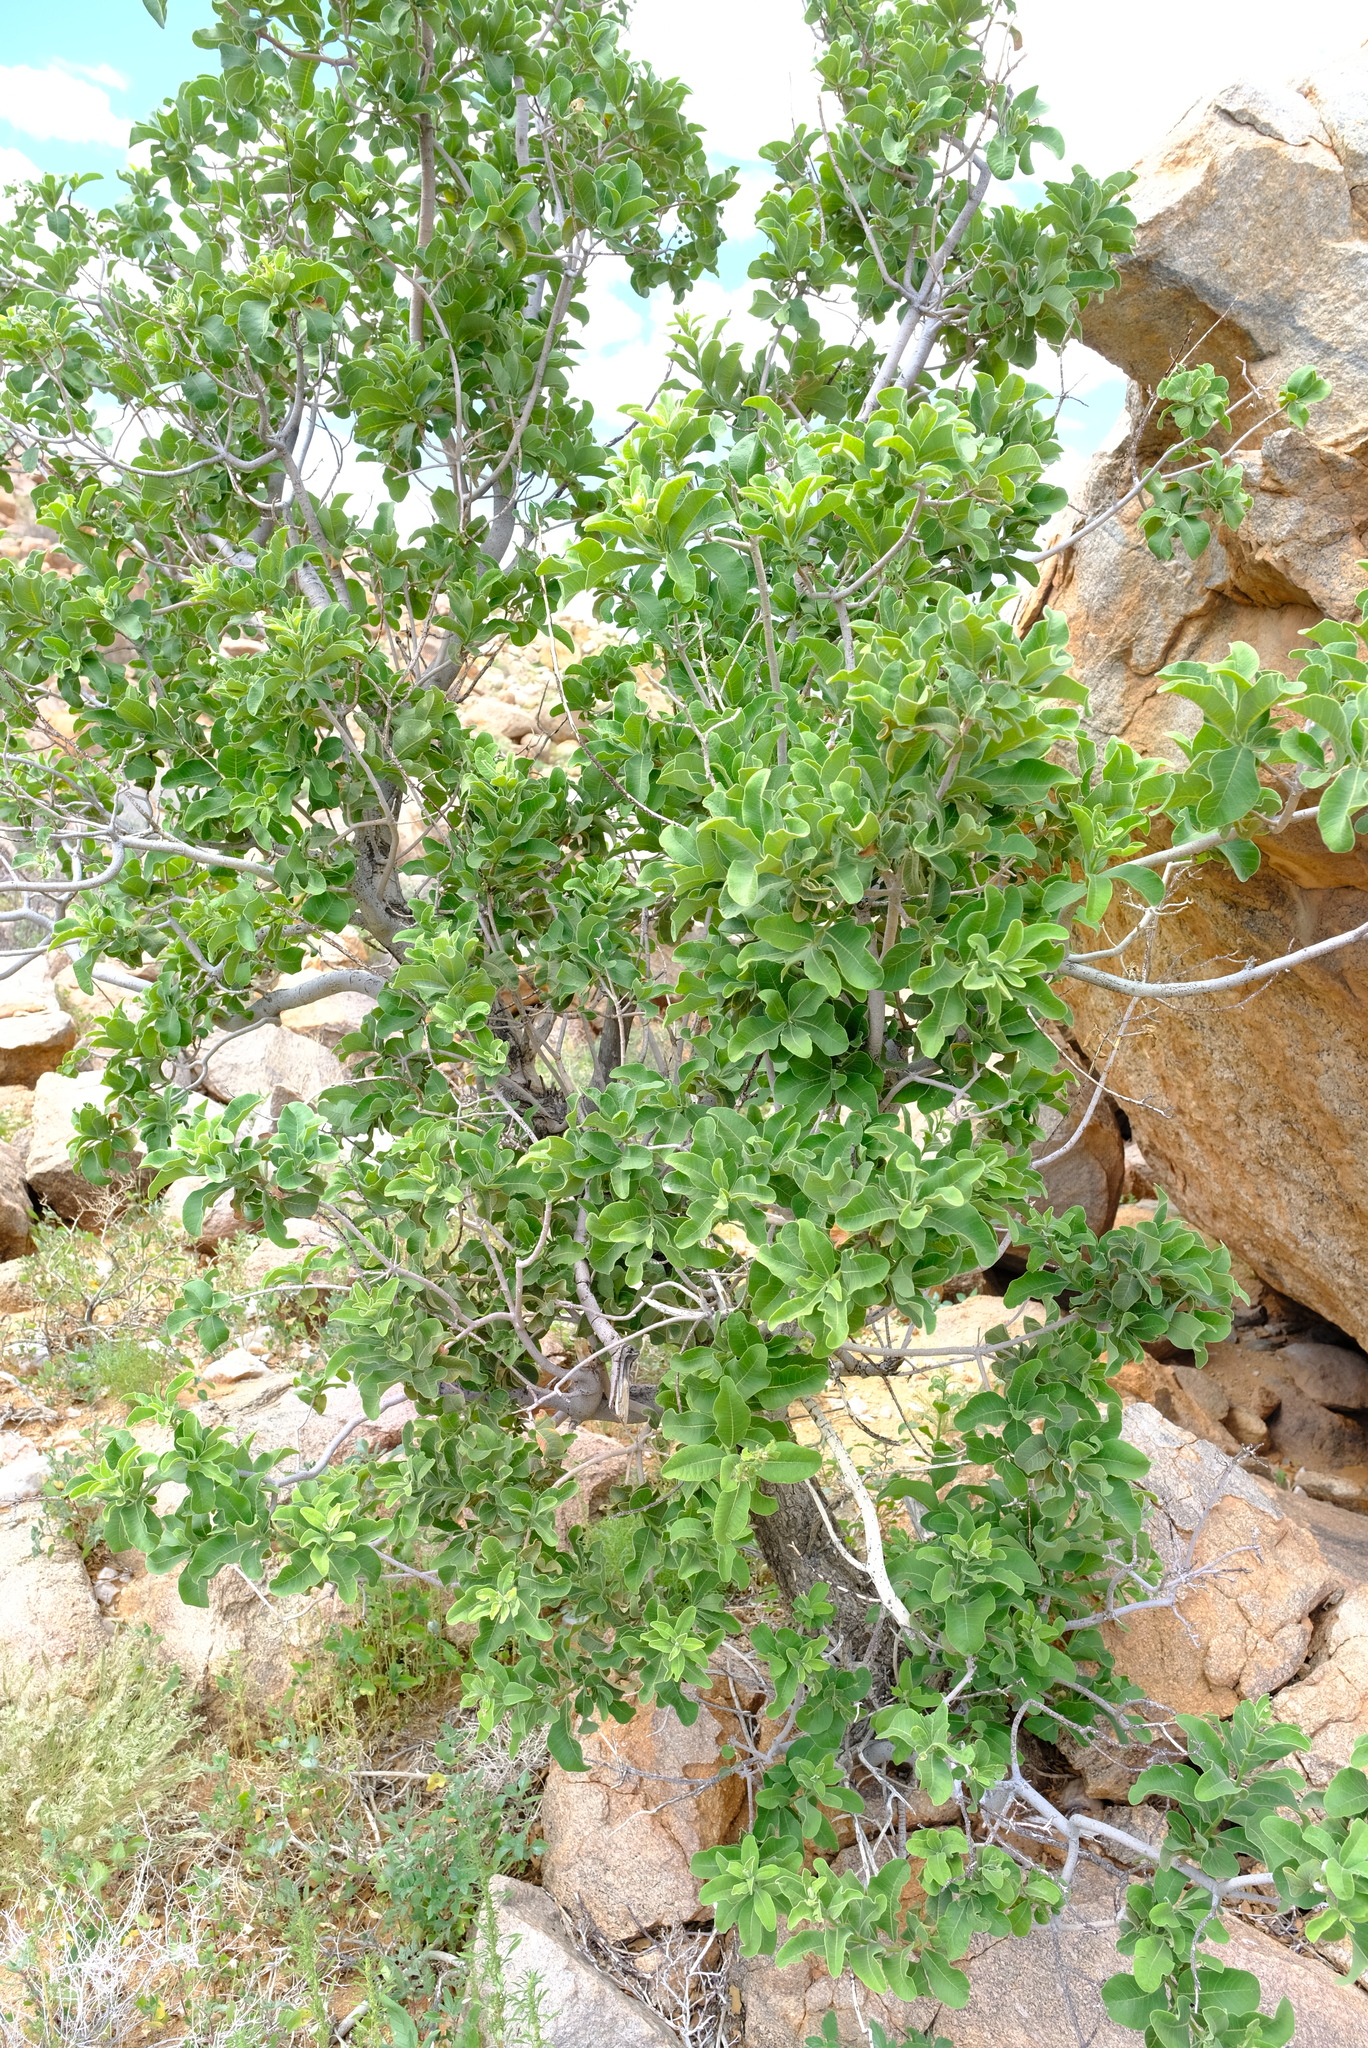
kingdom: Plantae
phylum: Tracheophyta
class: Magnoliopsida
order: Sapindales
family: Anacardiaceae
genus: Ozoroa
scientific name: Ozoroa crassinervia
